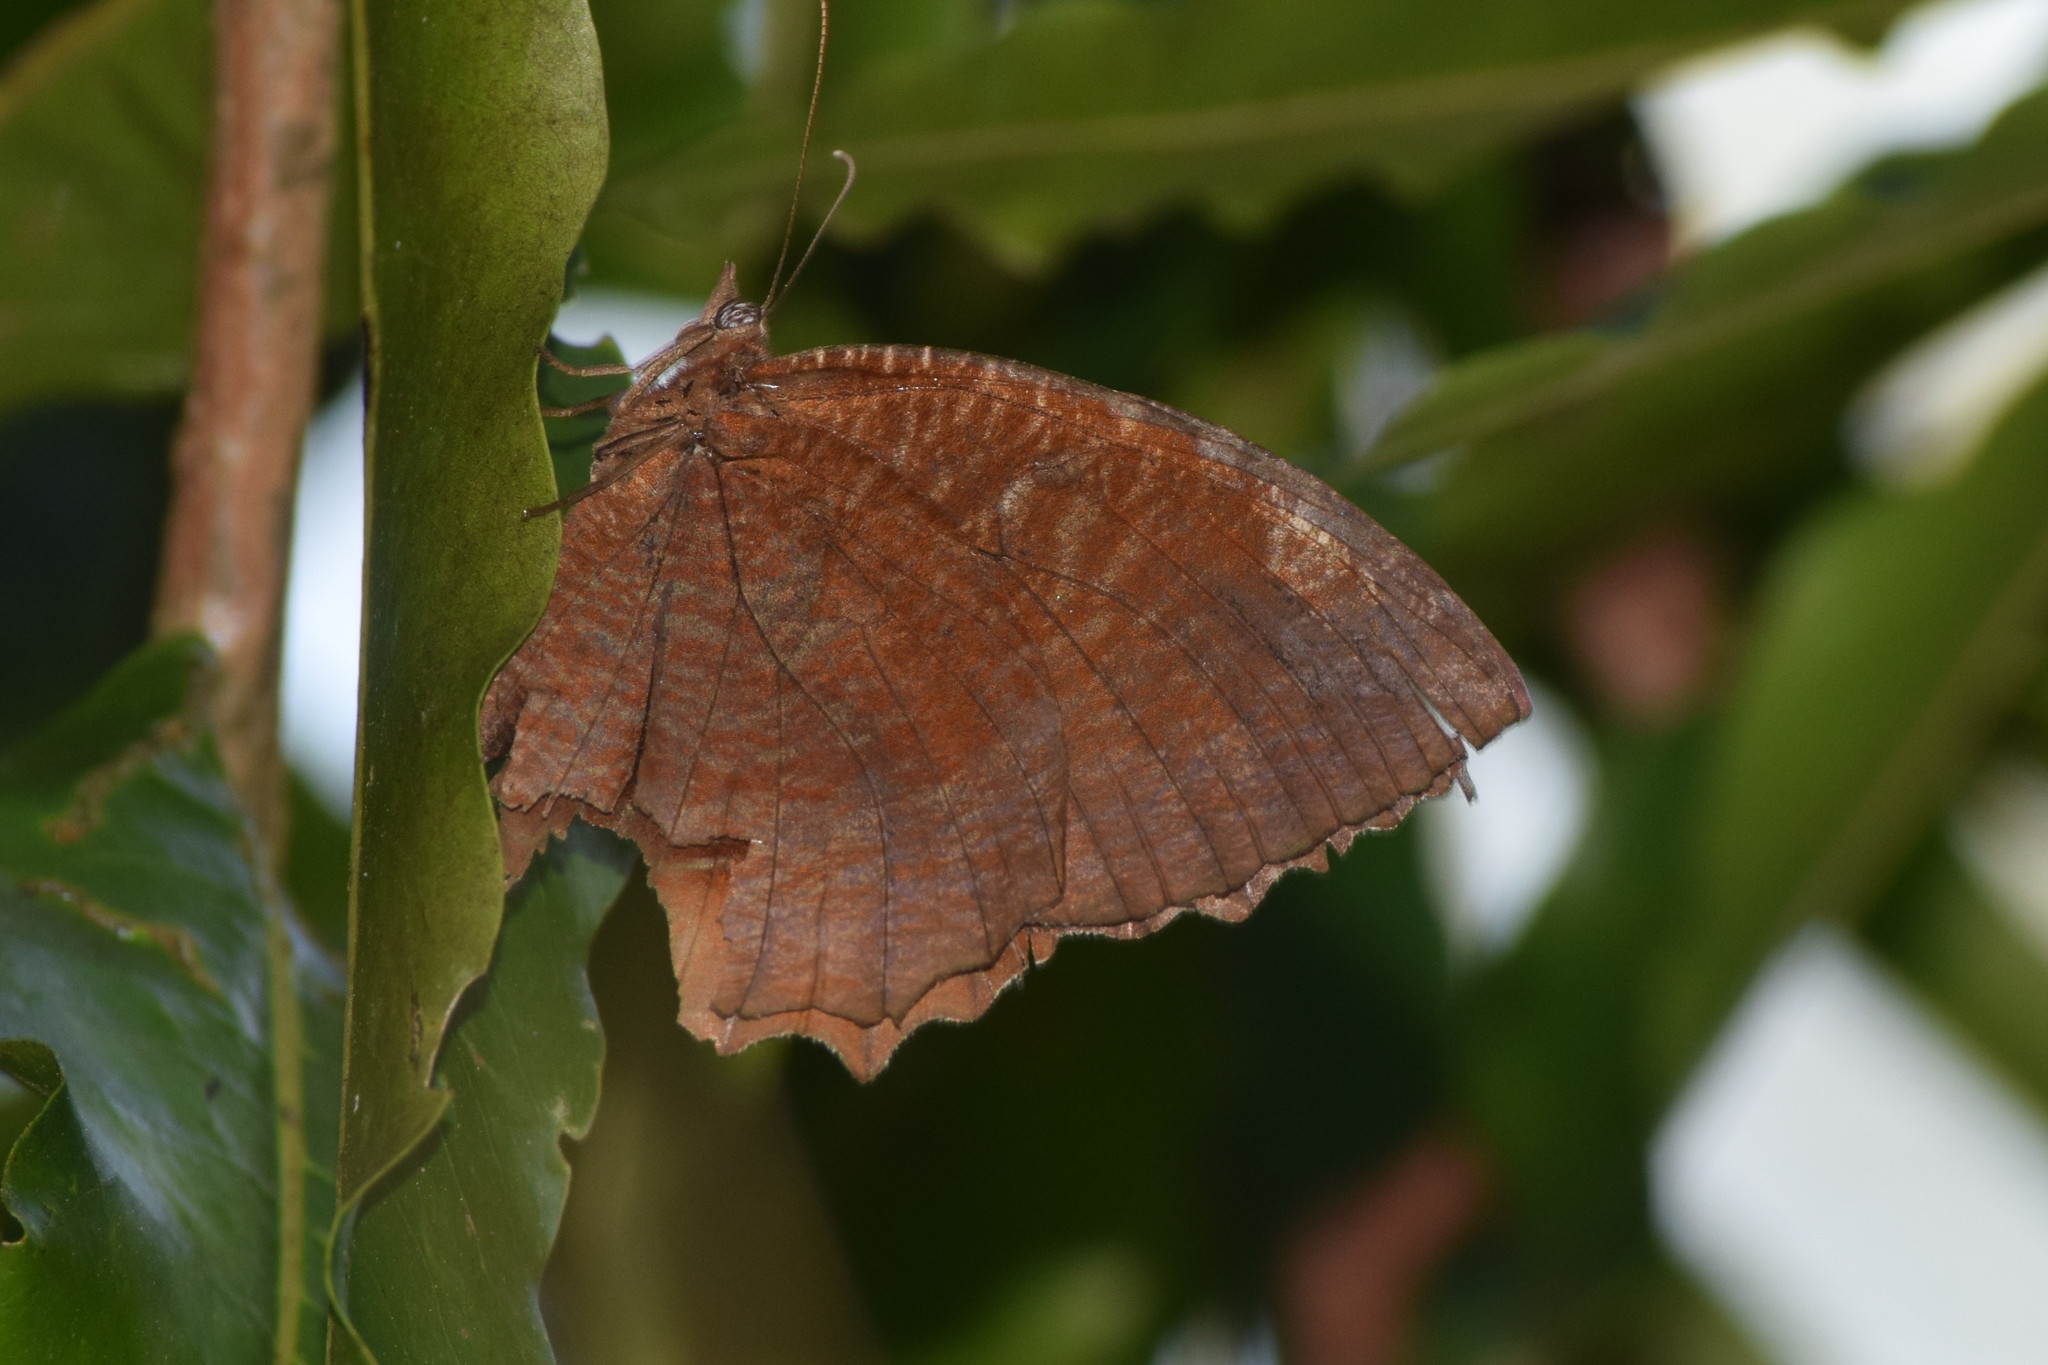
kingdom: Animalia
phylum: Arthropoda
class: Insecta
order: Lepidoptera
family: Nymphalidae
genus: Elymnias
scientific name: Elymnias hypermnestra
